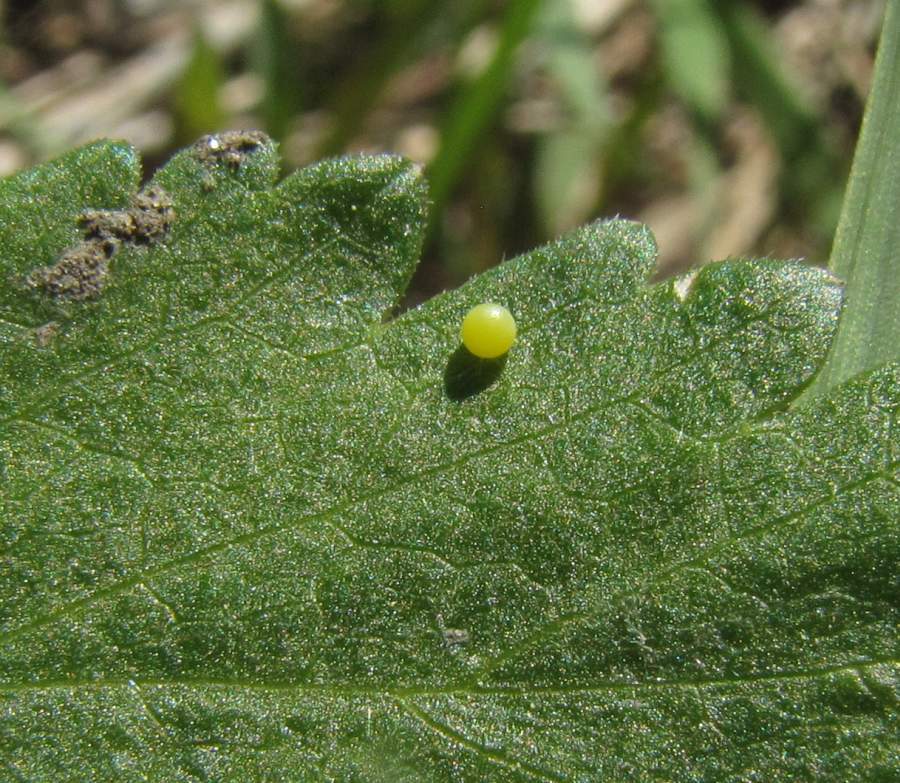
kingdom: Animalia
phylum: Arthropoda
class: Insecta
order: Lepidoptera
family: Papilionidae
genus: Papilio
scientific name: Papilio polyxenes
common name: Black swallowtail
